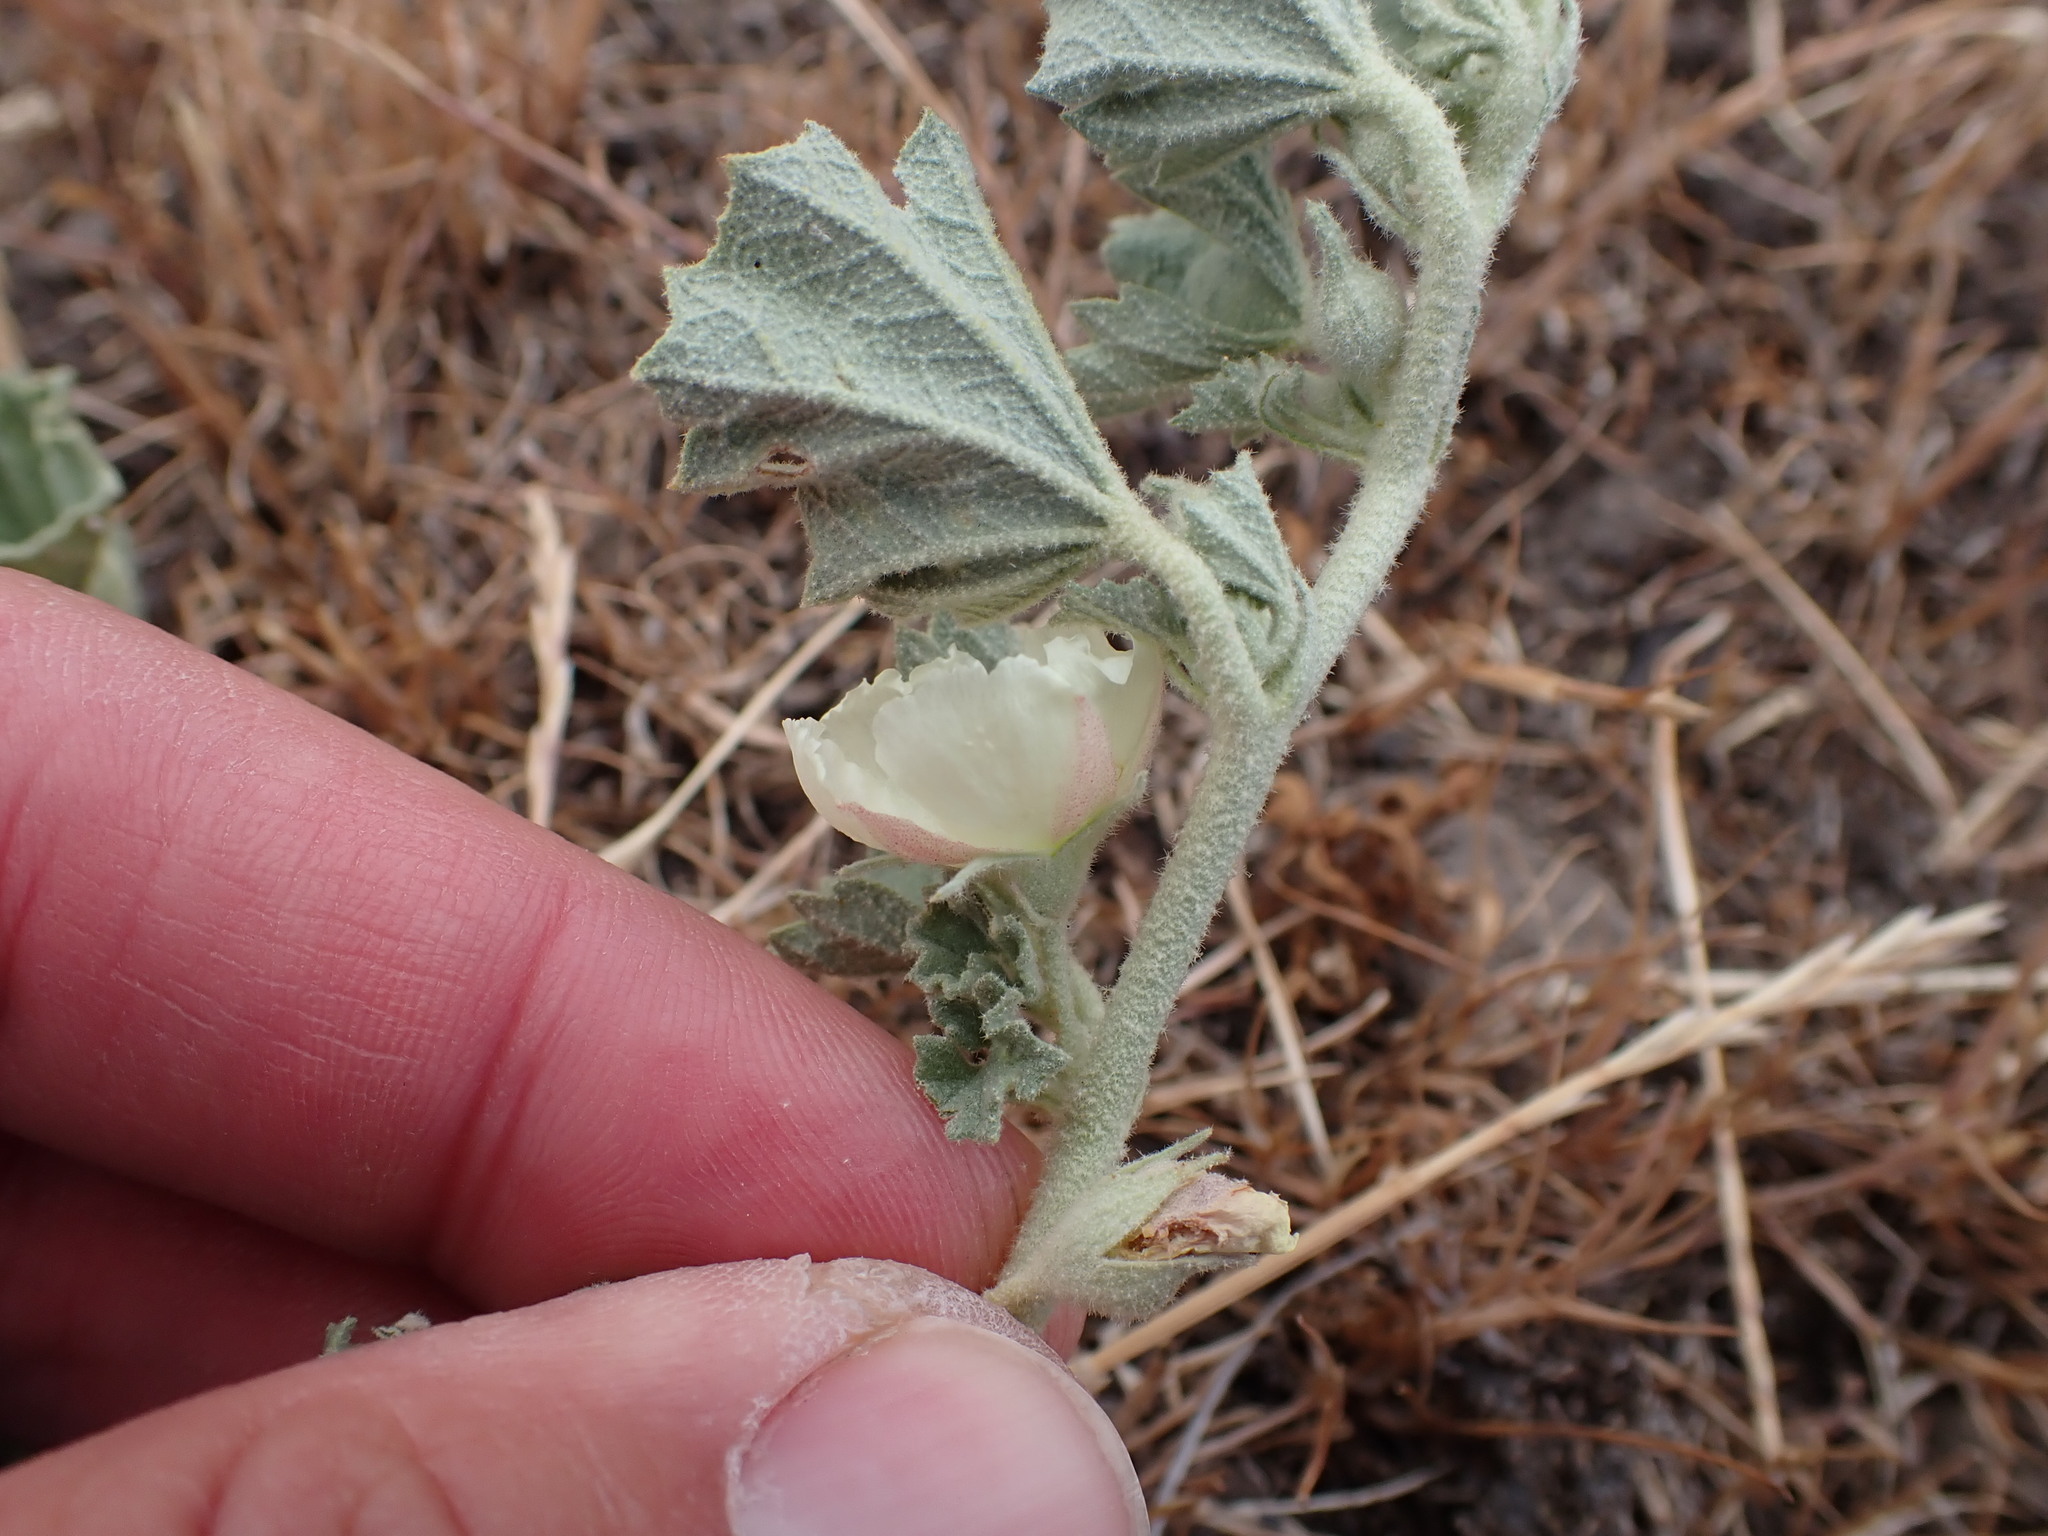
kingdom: Plantae
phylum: Tracheophyta
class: Magnoliopsida
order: Malvales
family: Malvaceae
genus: Malvella
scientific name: Malvella leprosa
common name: Alkali-mallow
